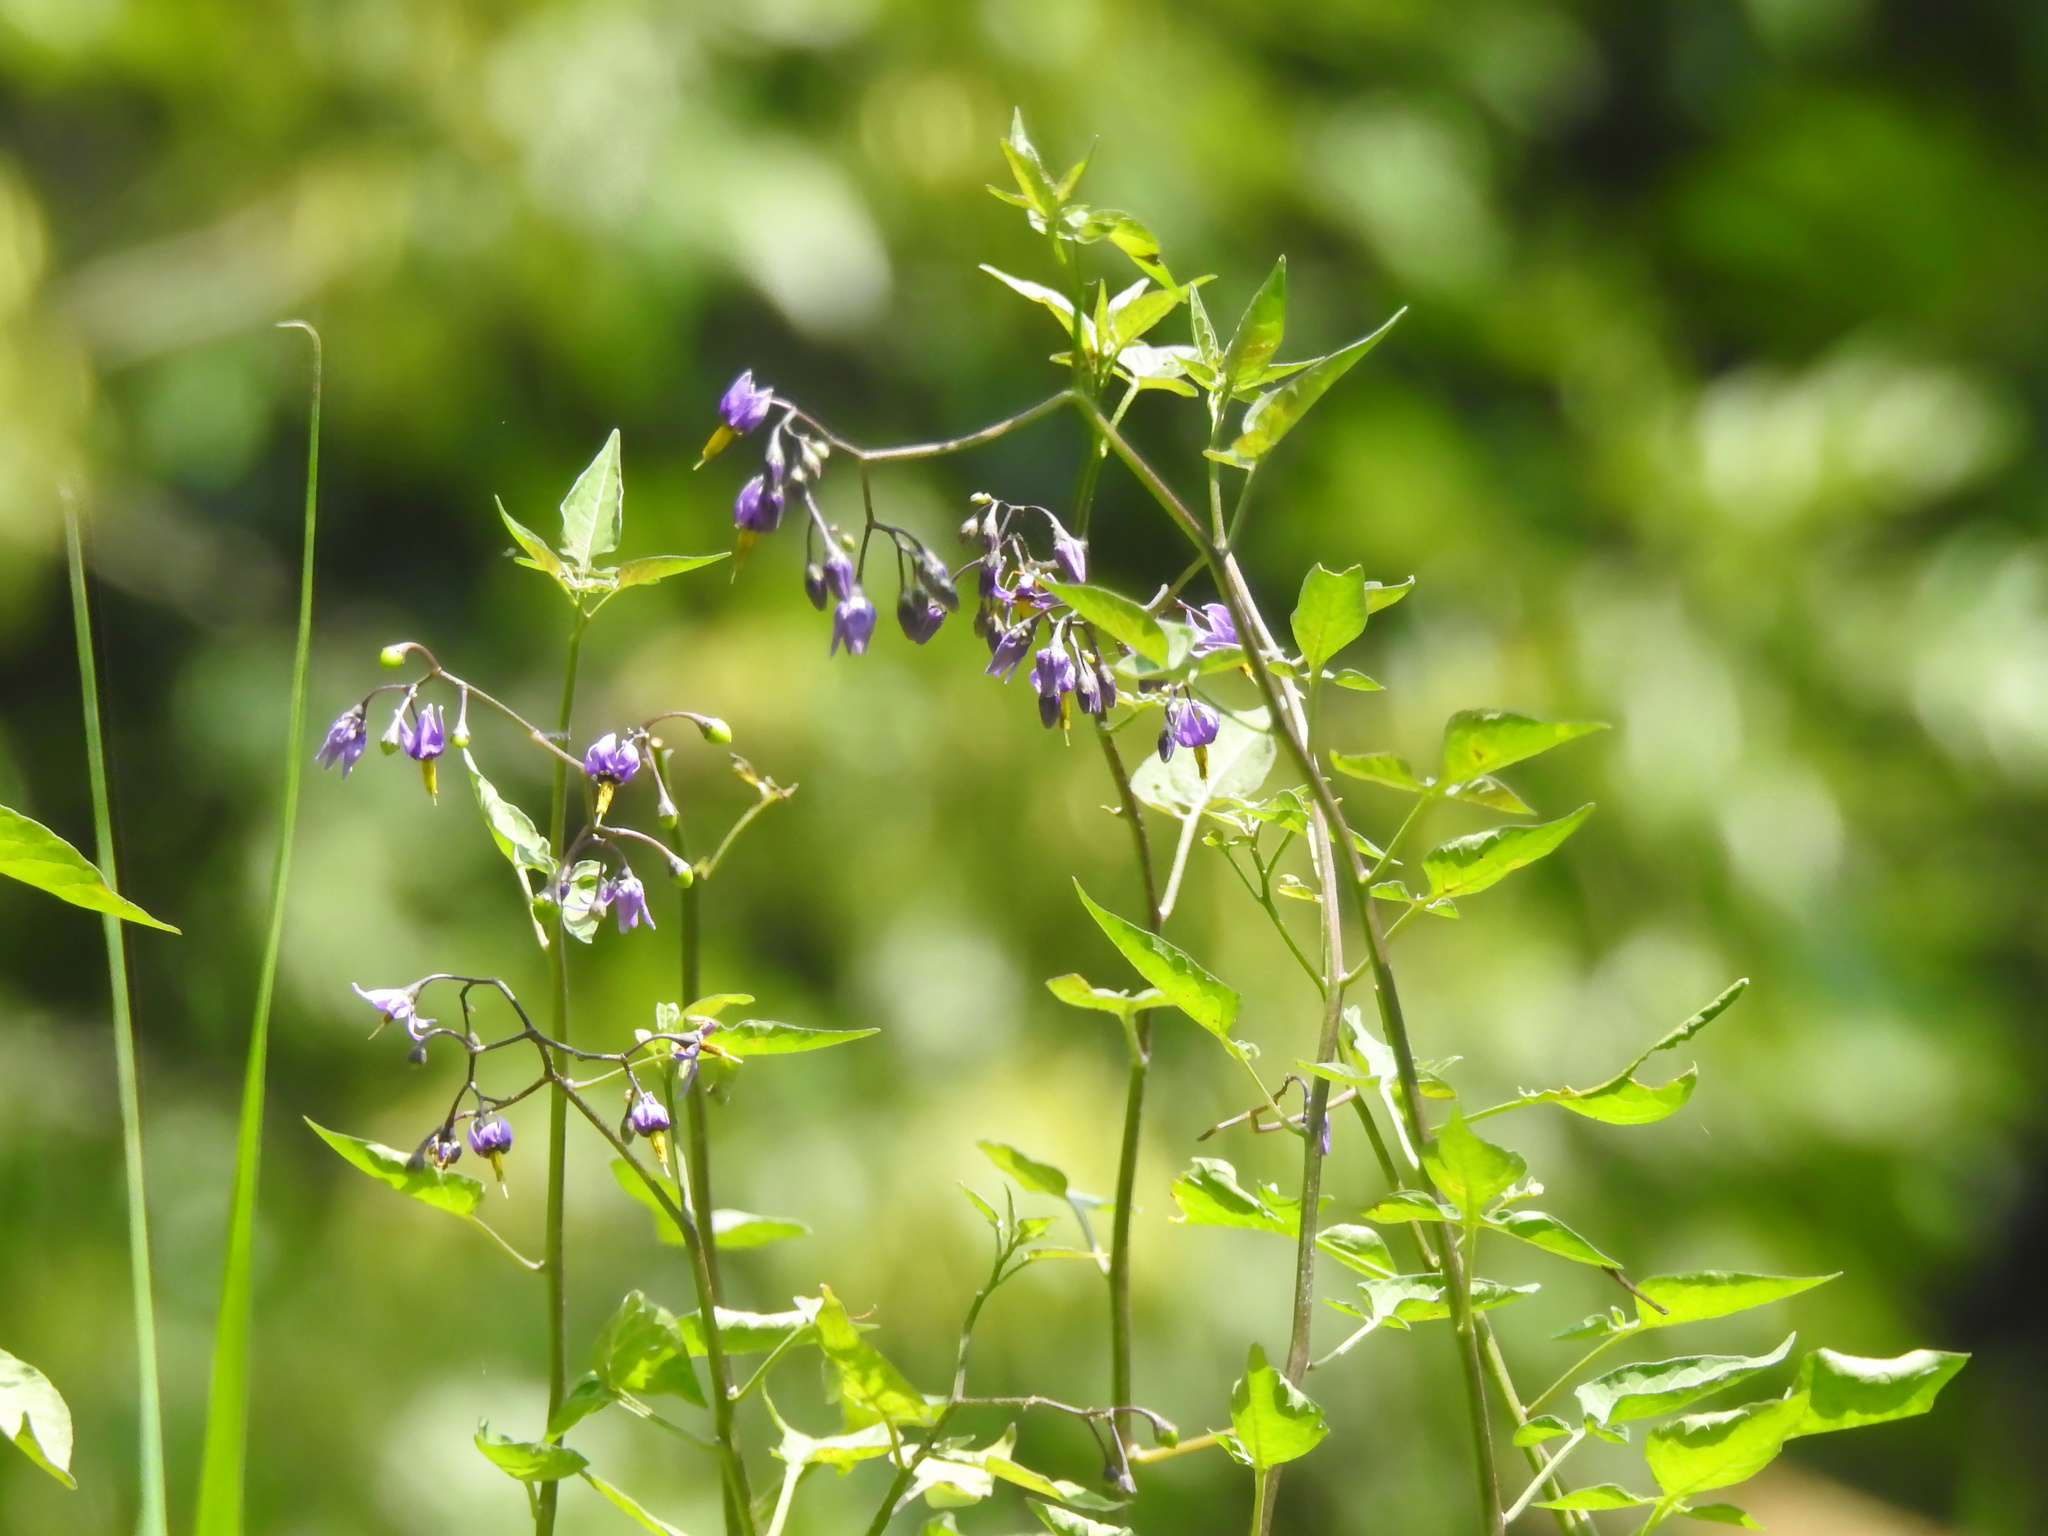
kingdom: Plantae
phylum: Tracheophyta
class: Magnoliopsida
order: Solanales
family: Solanaceae
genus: Solanum
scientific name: Solanum dulcamara
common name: Climbing nightshade
